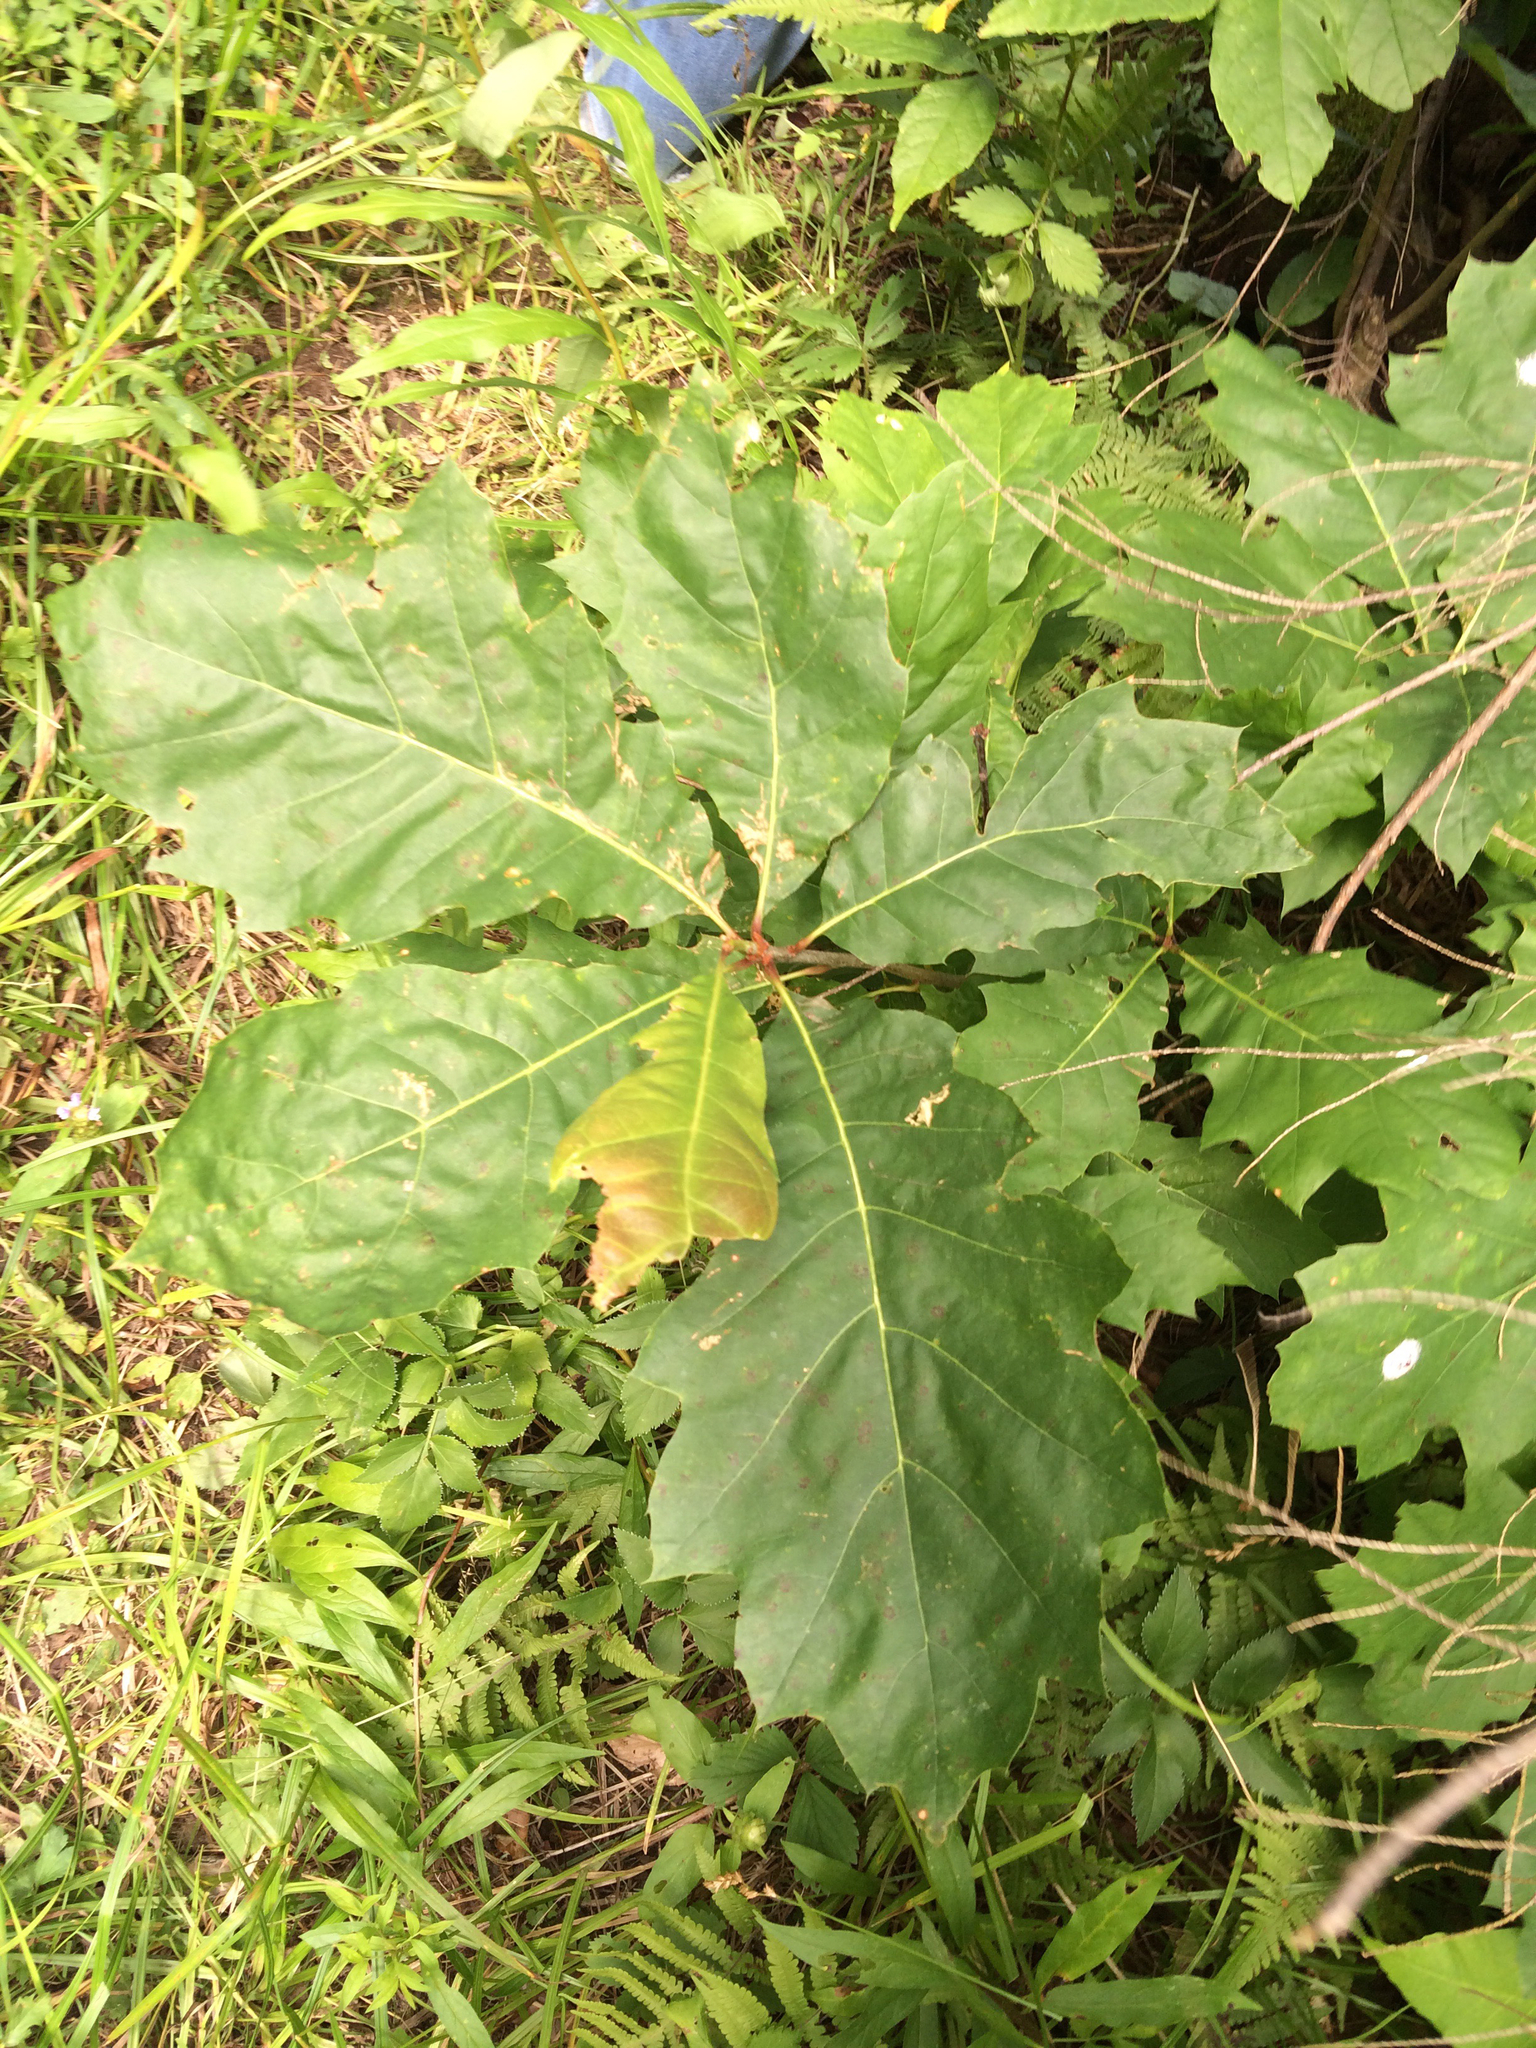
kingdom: Plantae
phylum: Tracheophyta
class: Magnoliopsida
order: Fagales
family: Fagaceae
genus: Quercus
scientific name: Quercus rubra
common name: Red oak
